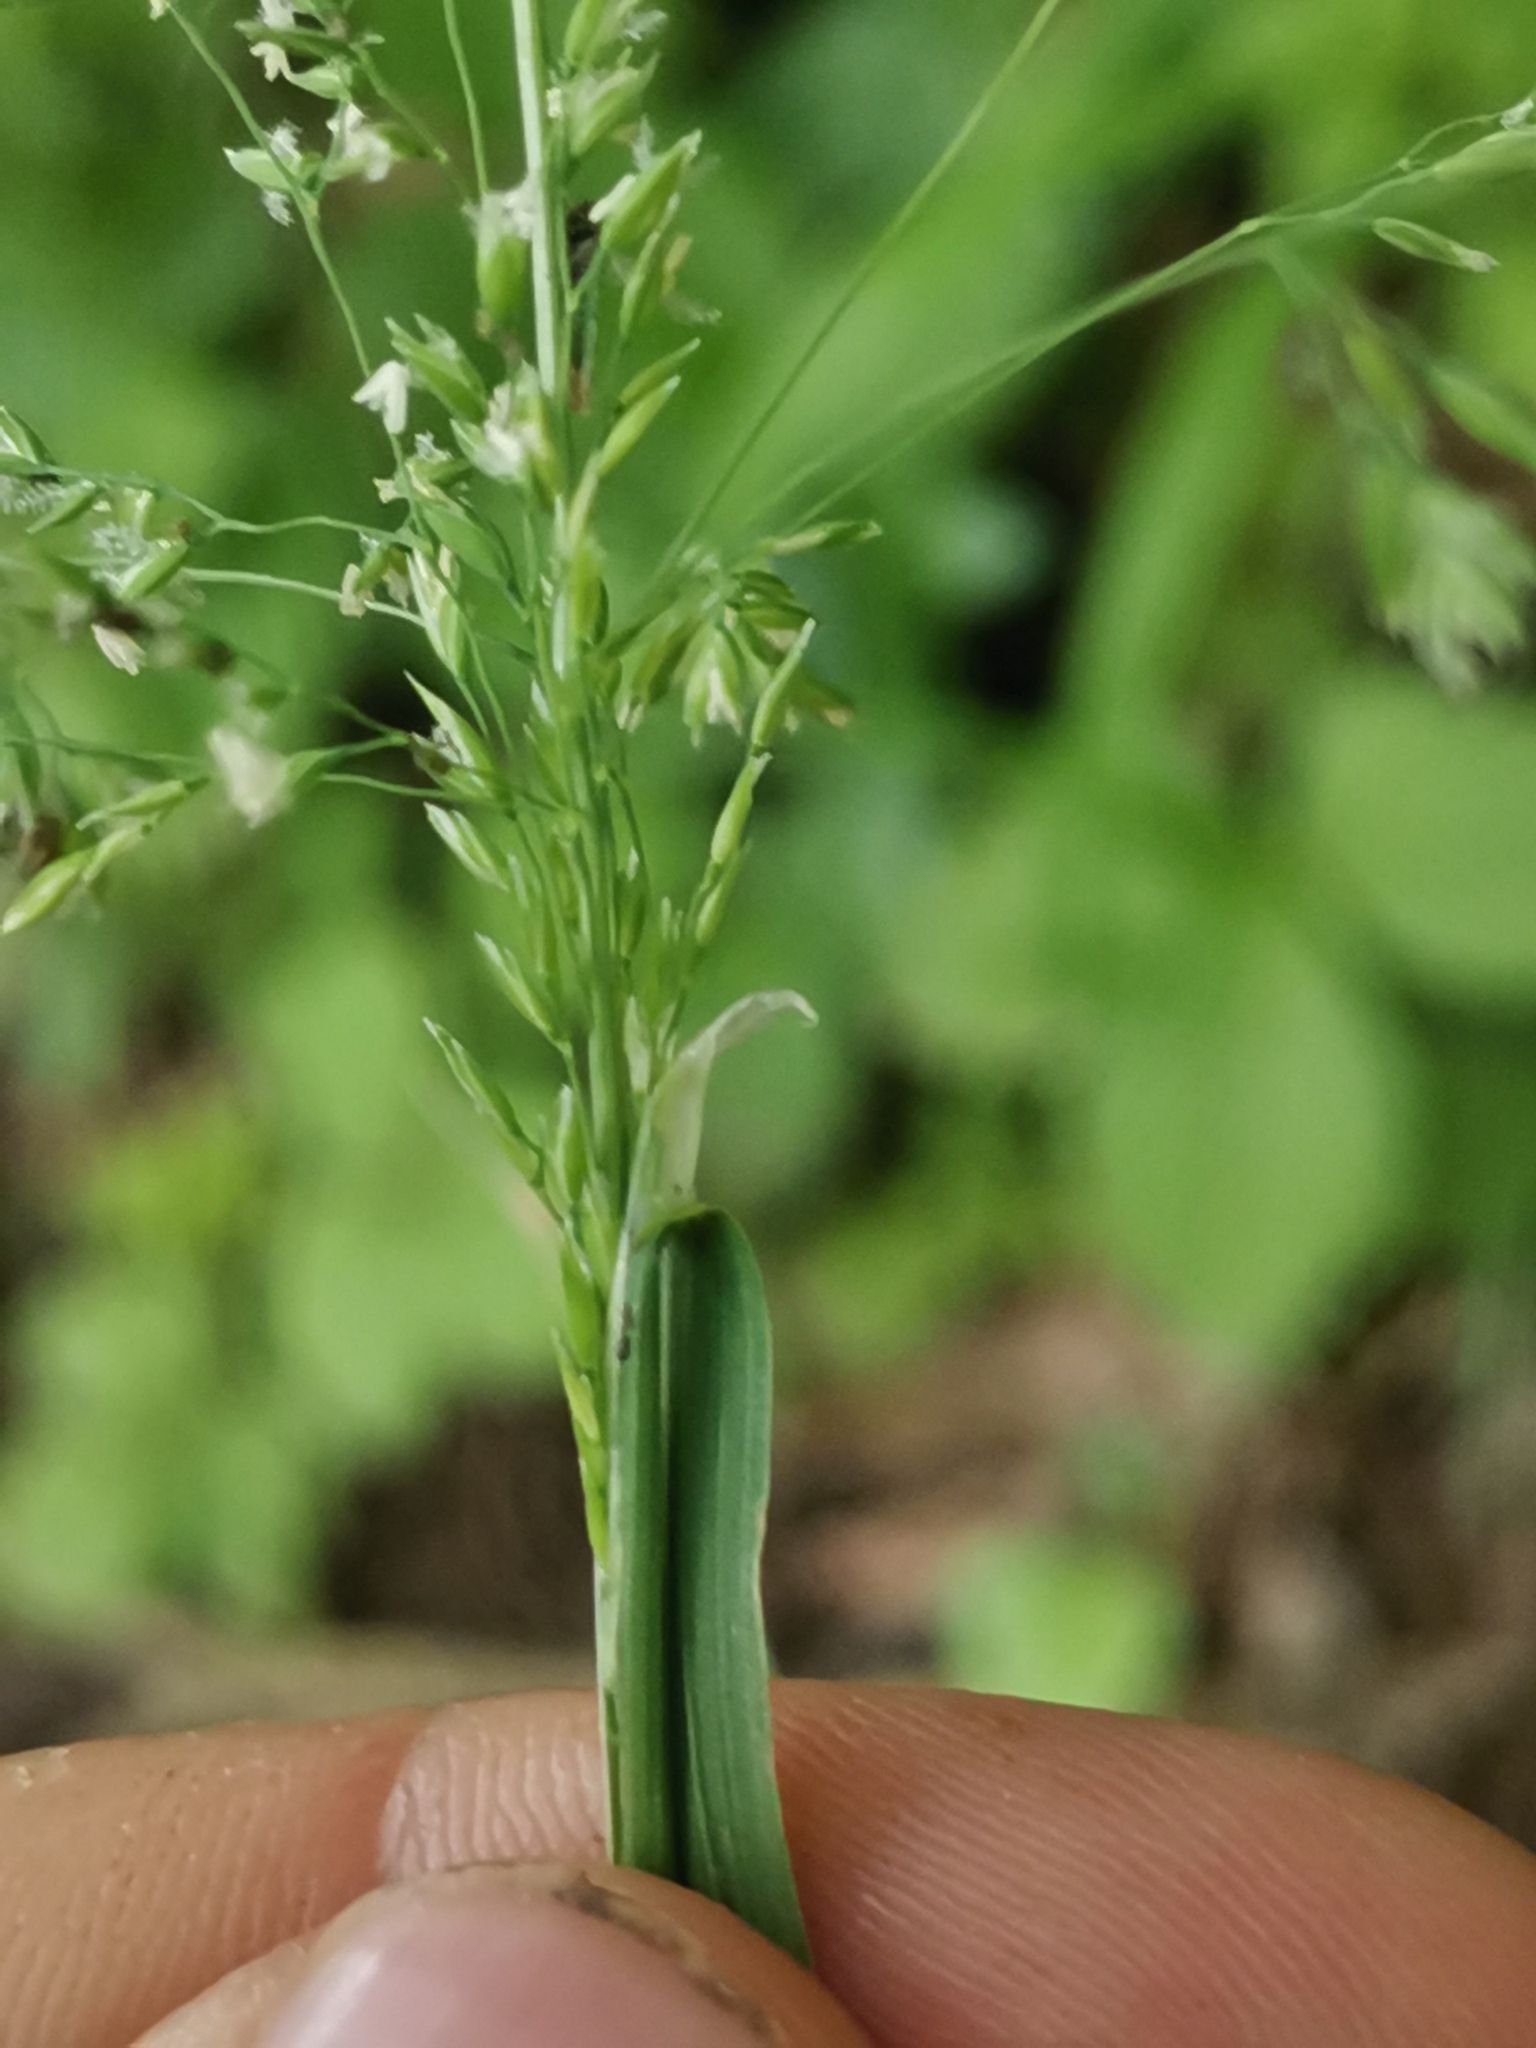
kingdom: Plantae
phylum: Tracheophyta
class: Liliopsida
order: Poales
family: Poaceae
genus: Poa
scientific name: Poa trivialis
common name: Rough bluegrass
